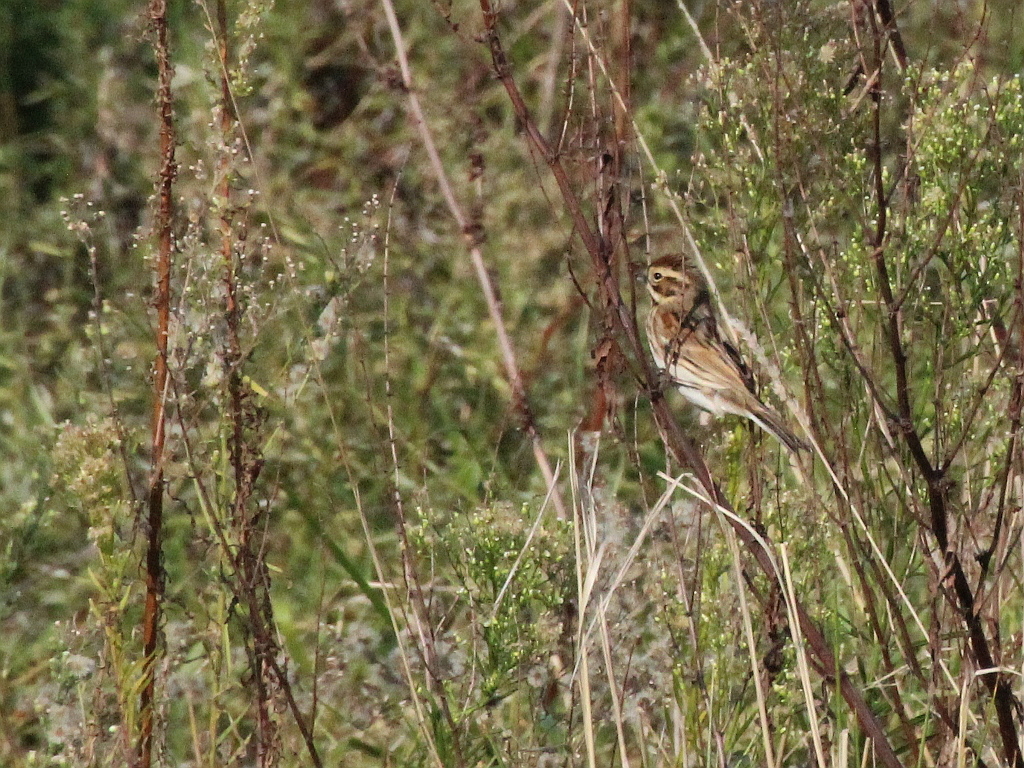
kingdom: Animalia
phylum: Chordata
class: Aves
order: Passeriformes
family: Emberizidae
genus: Emberiza
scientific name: Emberiza schoeniclus
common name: Reed bunting
